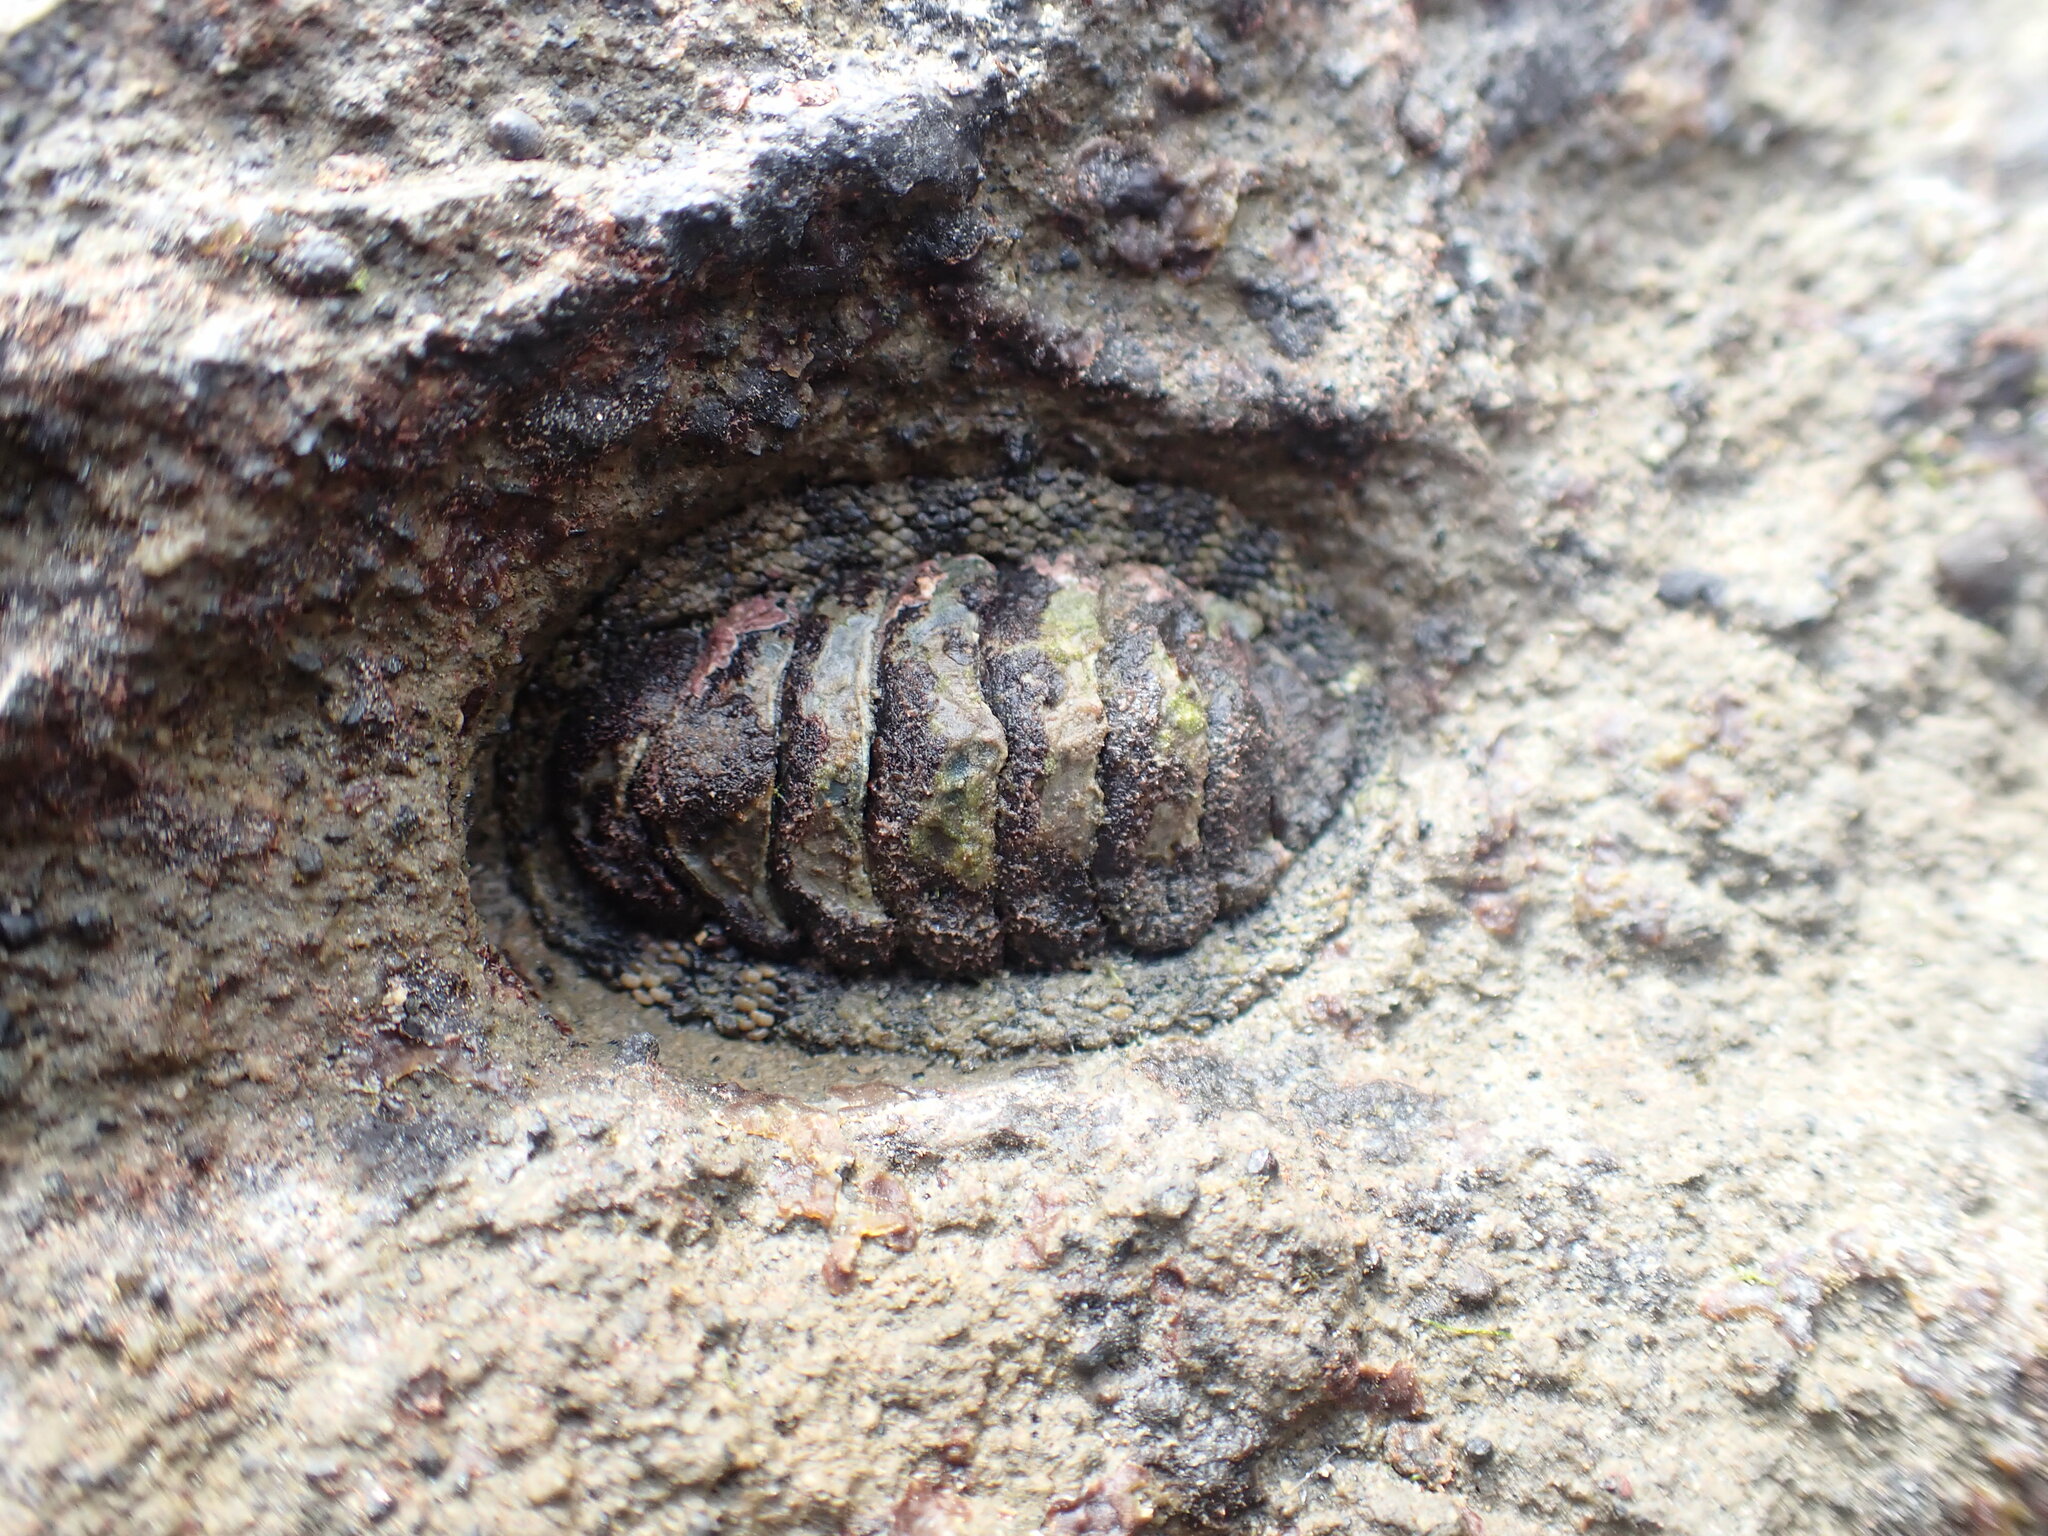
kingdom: Animalia
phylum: Mollusca
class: Polyplacophora
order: Chitonida
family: Chitonidae
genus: Sypharochiton
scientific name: Sypharochiton pelliserpentis
